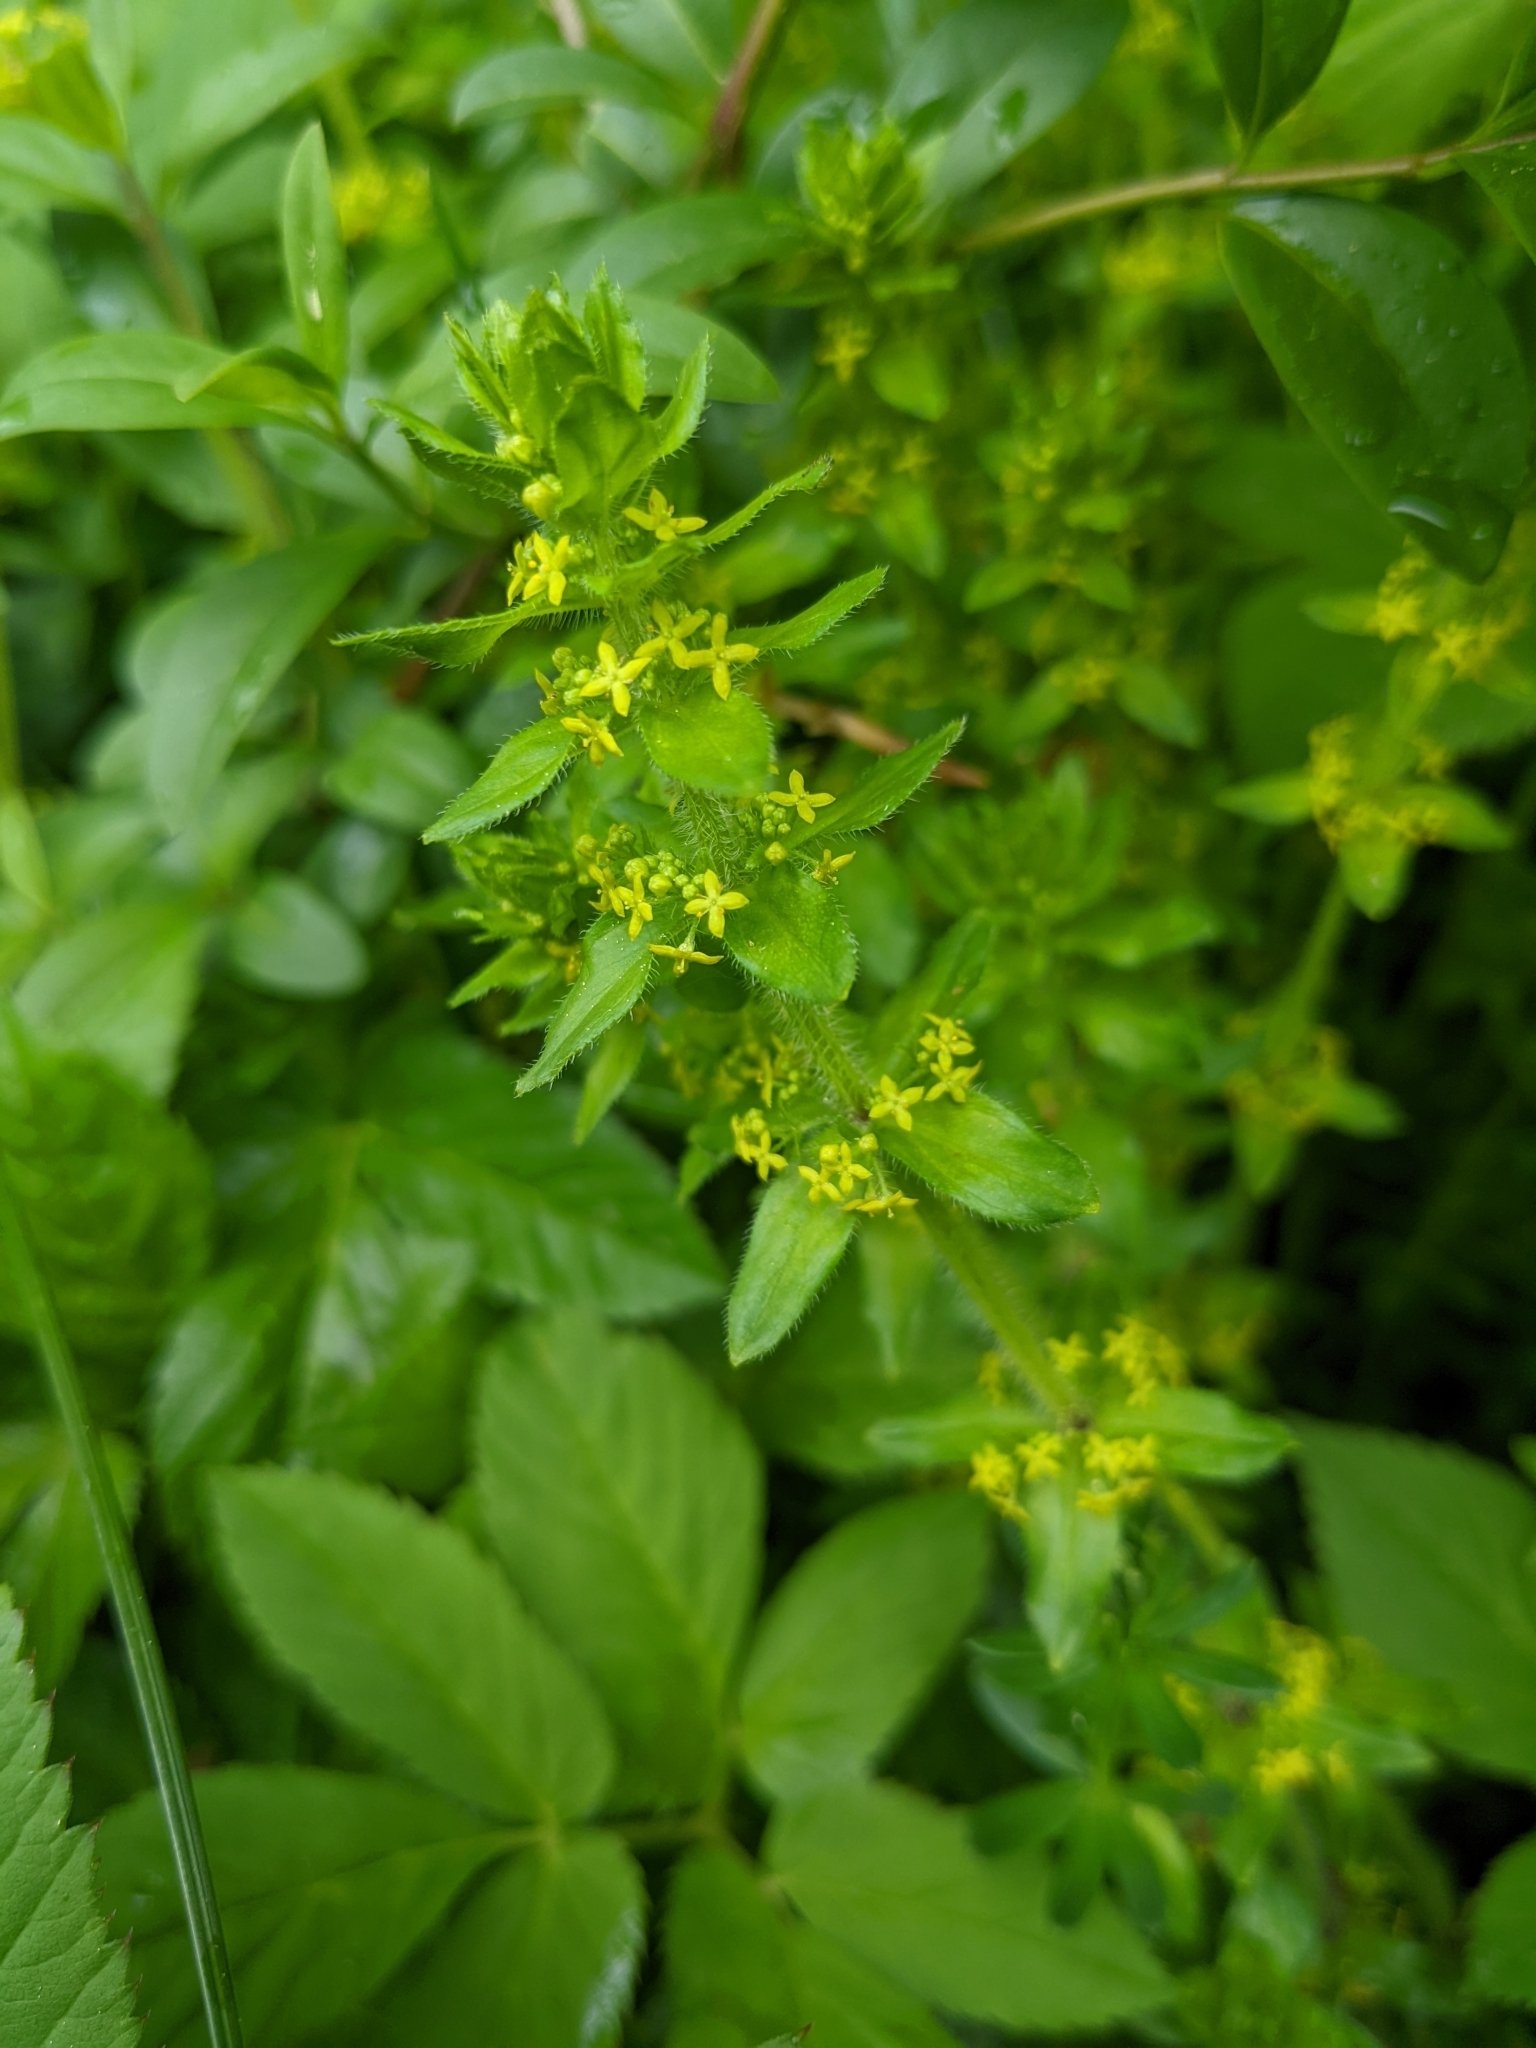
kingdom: Plantae
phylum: Tracheophyta
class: Magnoliopsida
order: Gentianales
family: Rubiaceae
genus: Cruciata
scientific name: Cruciata laevipes
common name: Crosswort
